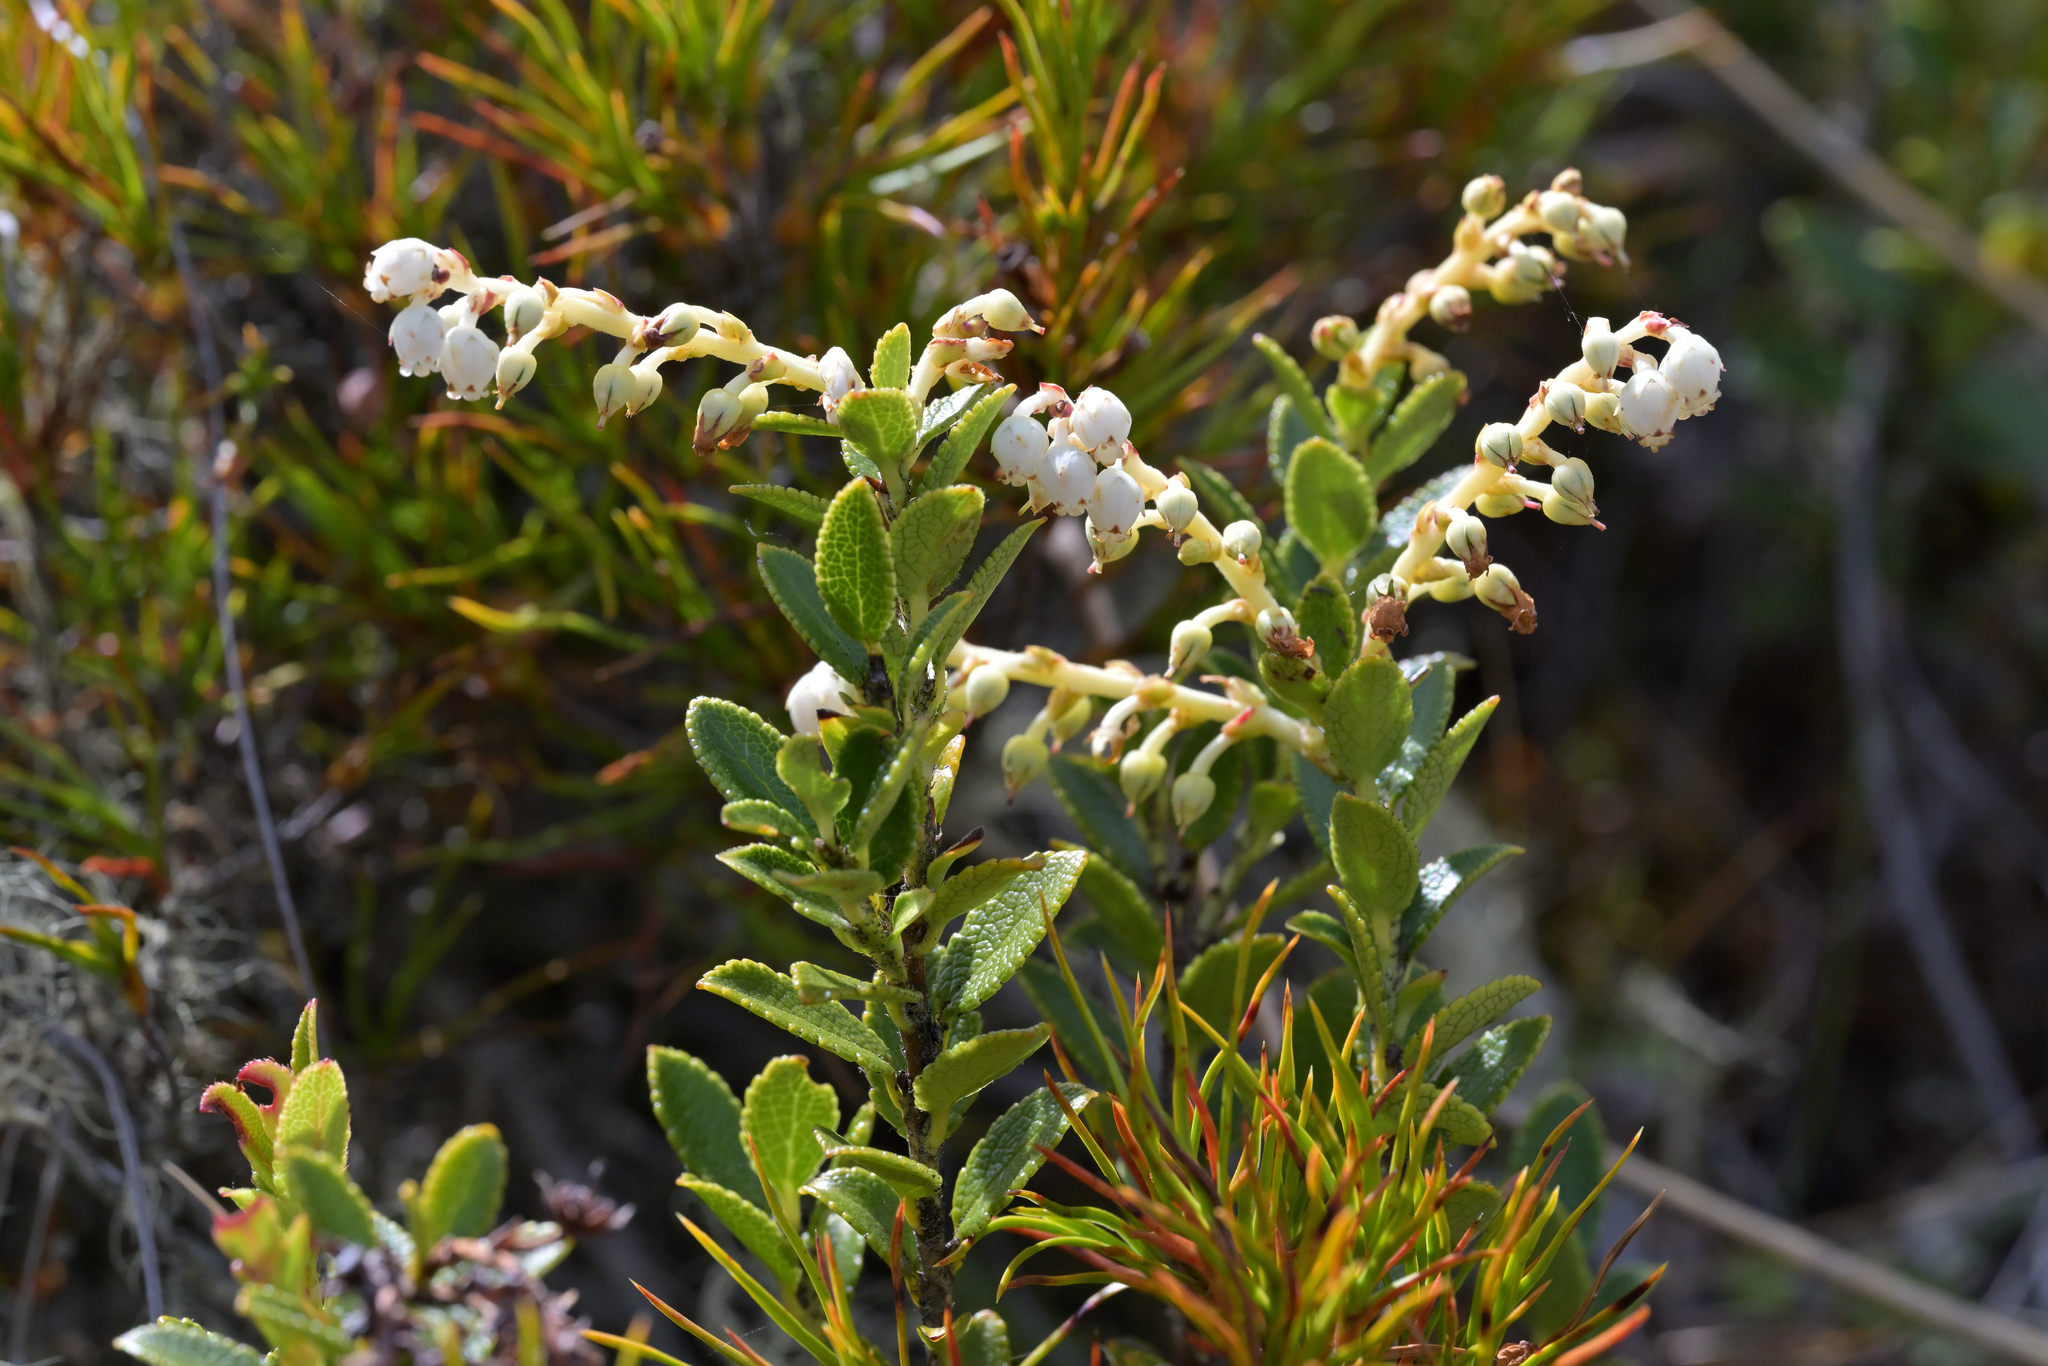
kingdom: Plantae
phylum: Tracheophyta
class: Magnoliopsida
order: Ericales
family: Ericaceae
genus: Gaultheria
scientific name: Gaultheria crassa
